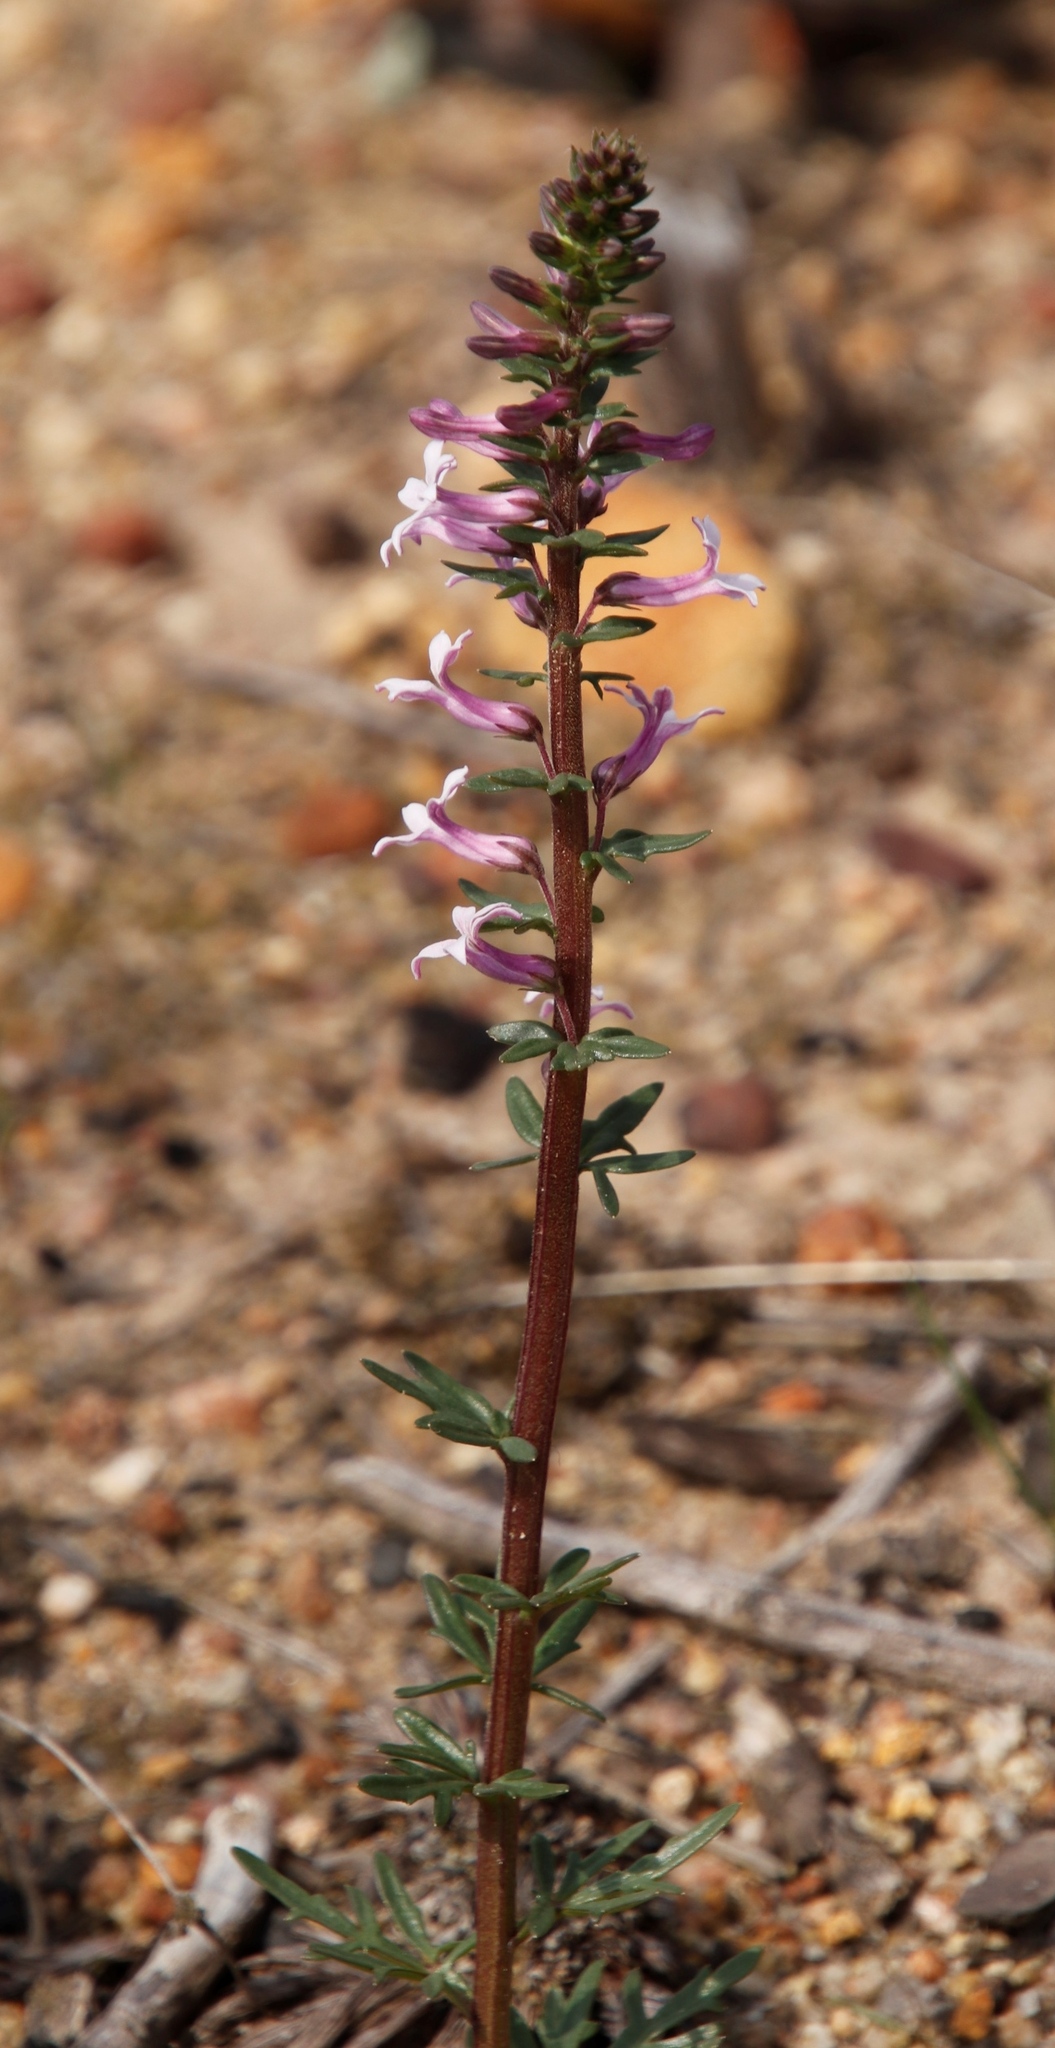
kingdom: Plantae
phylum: Tracheophyta
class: Magnoliopsida
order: Asterales
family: Campanulaceae
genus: Cyphia
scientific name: Cyphia bulbosa
